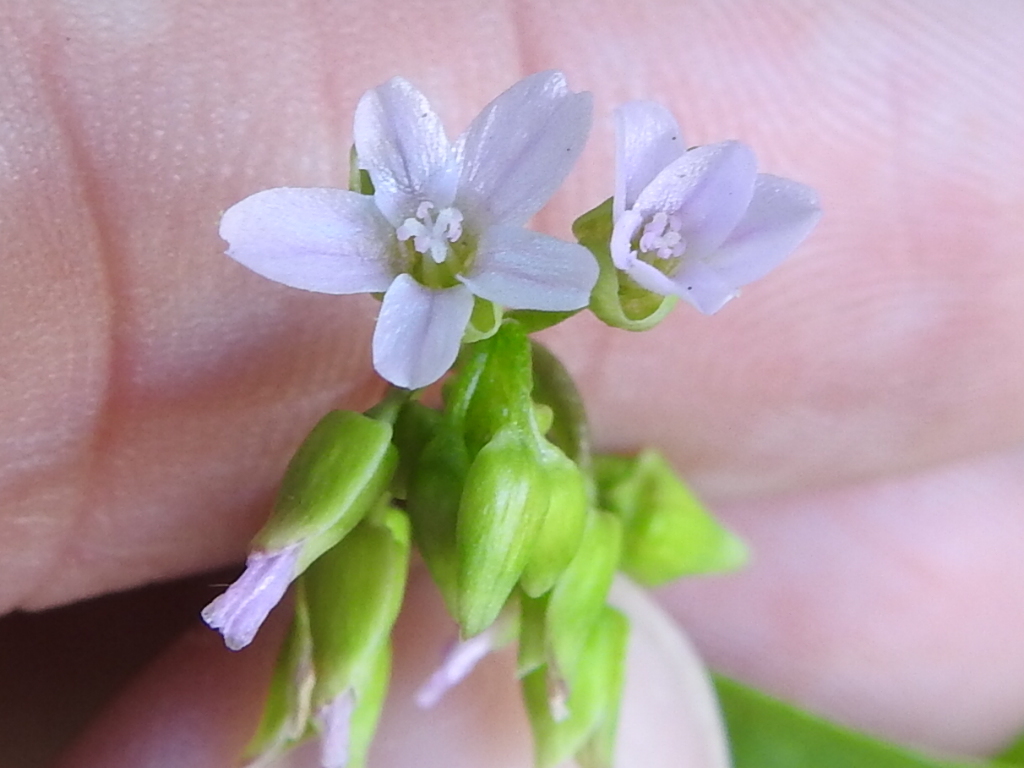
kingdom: Plantae
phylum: Tracheophyta
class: Magnoliopsida
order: Caryophyllales
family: Montiaceae
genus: Claytonia
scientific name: Claytonia perfoliata
